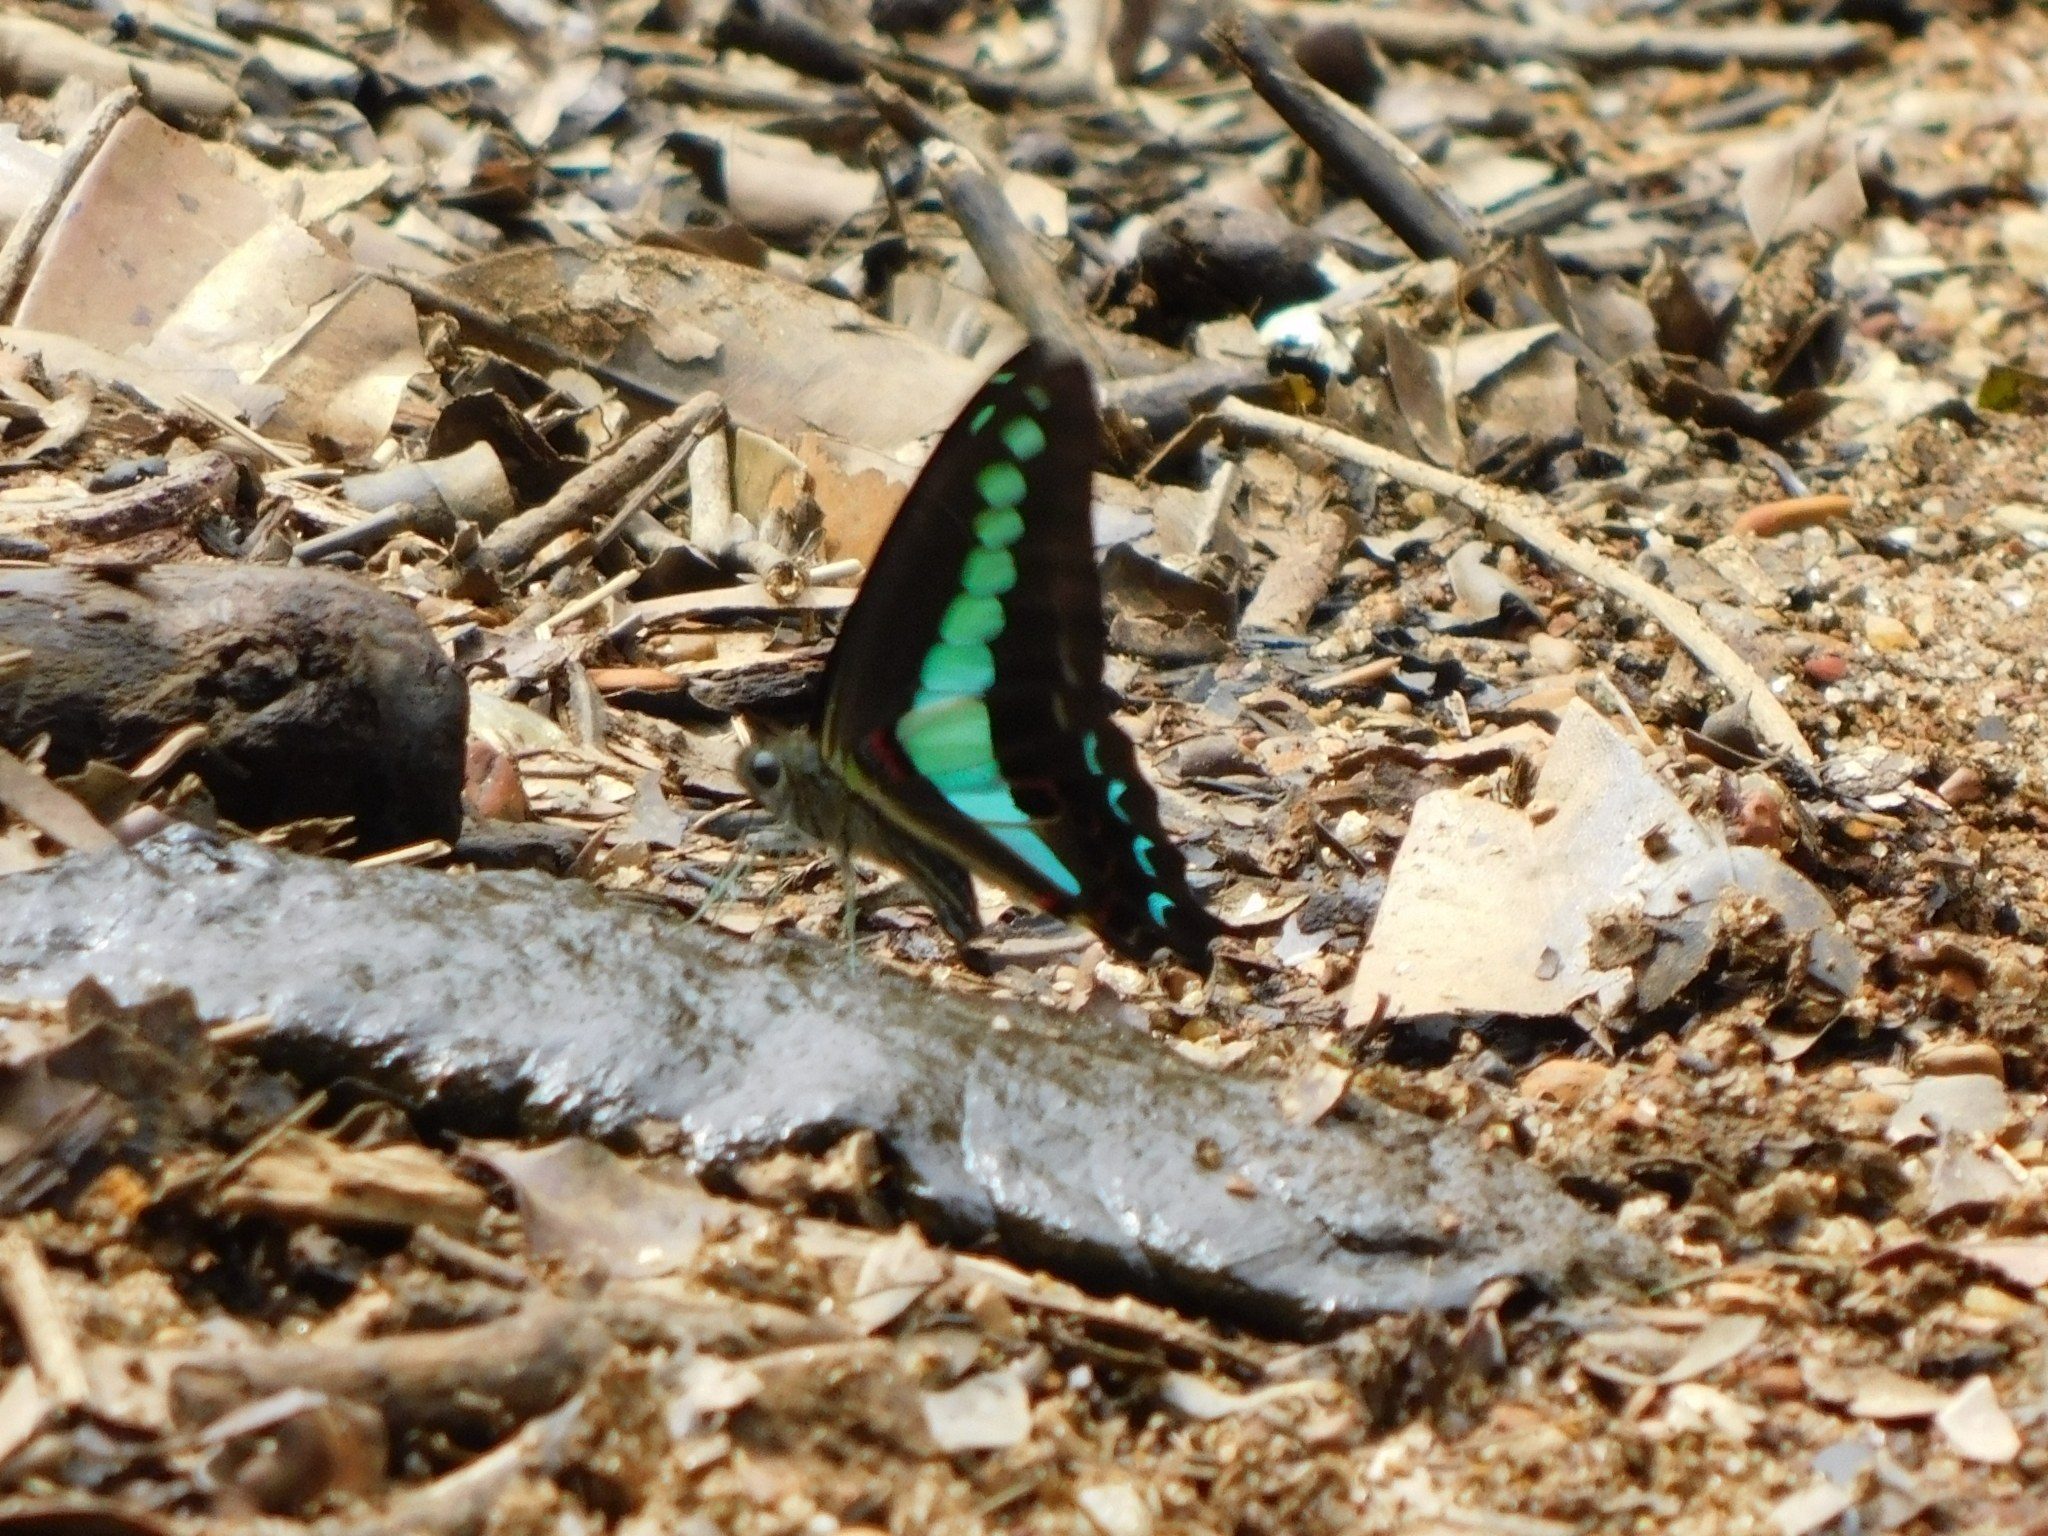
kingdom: Animalia
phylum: Arthropoda
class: Insecta
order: Lepidoptera
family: Papilionidae
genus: Graphium
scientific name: Graphium
